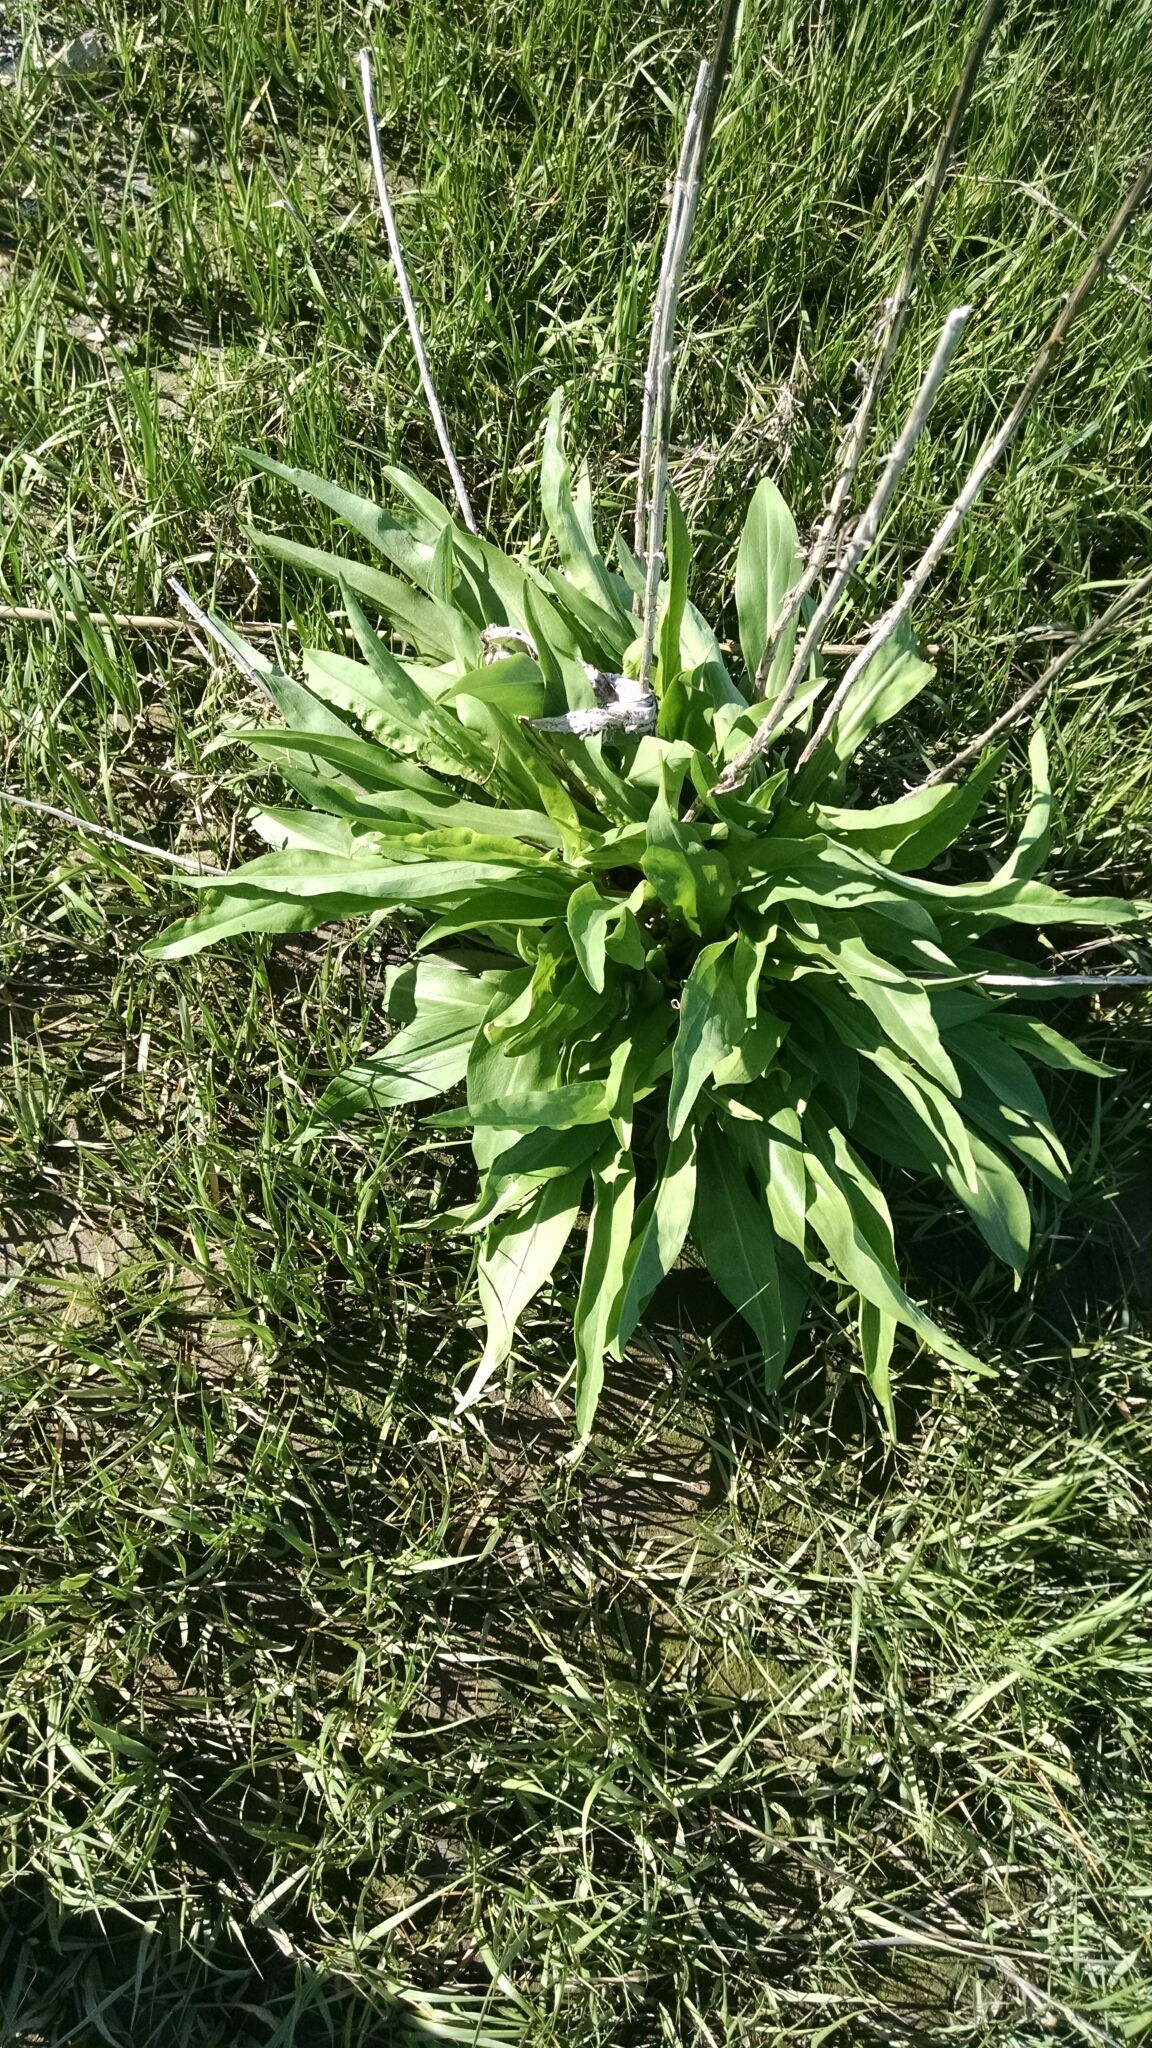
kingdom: Plantae
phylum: Tracheophyta
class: Magnoliopsida
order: Asterales
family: Asteraceae
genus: Solidago
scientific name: Solidago sempervirens
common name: Salt-marsh goldenrod
